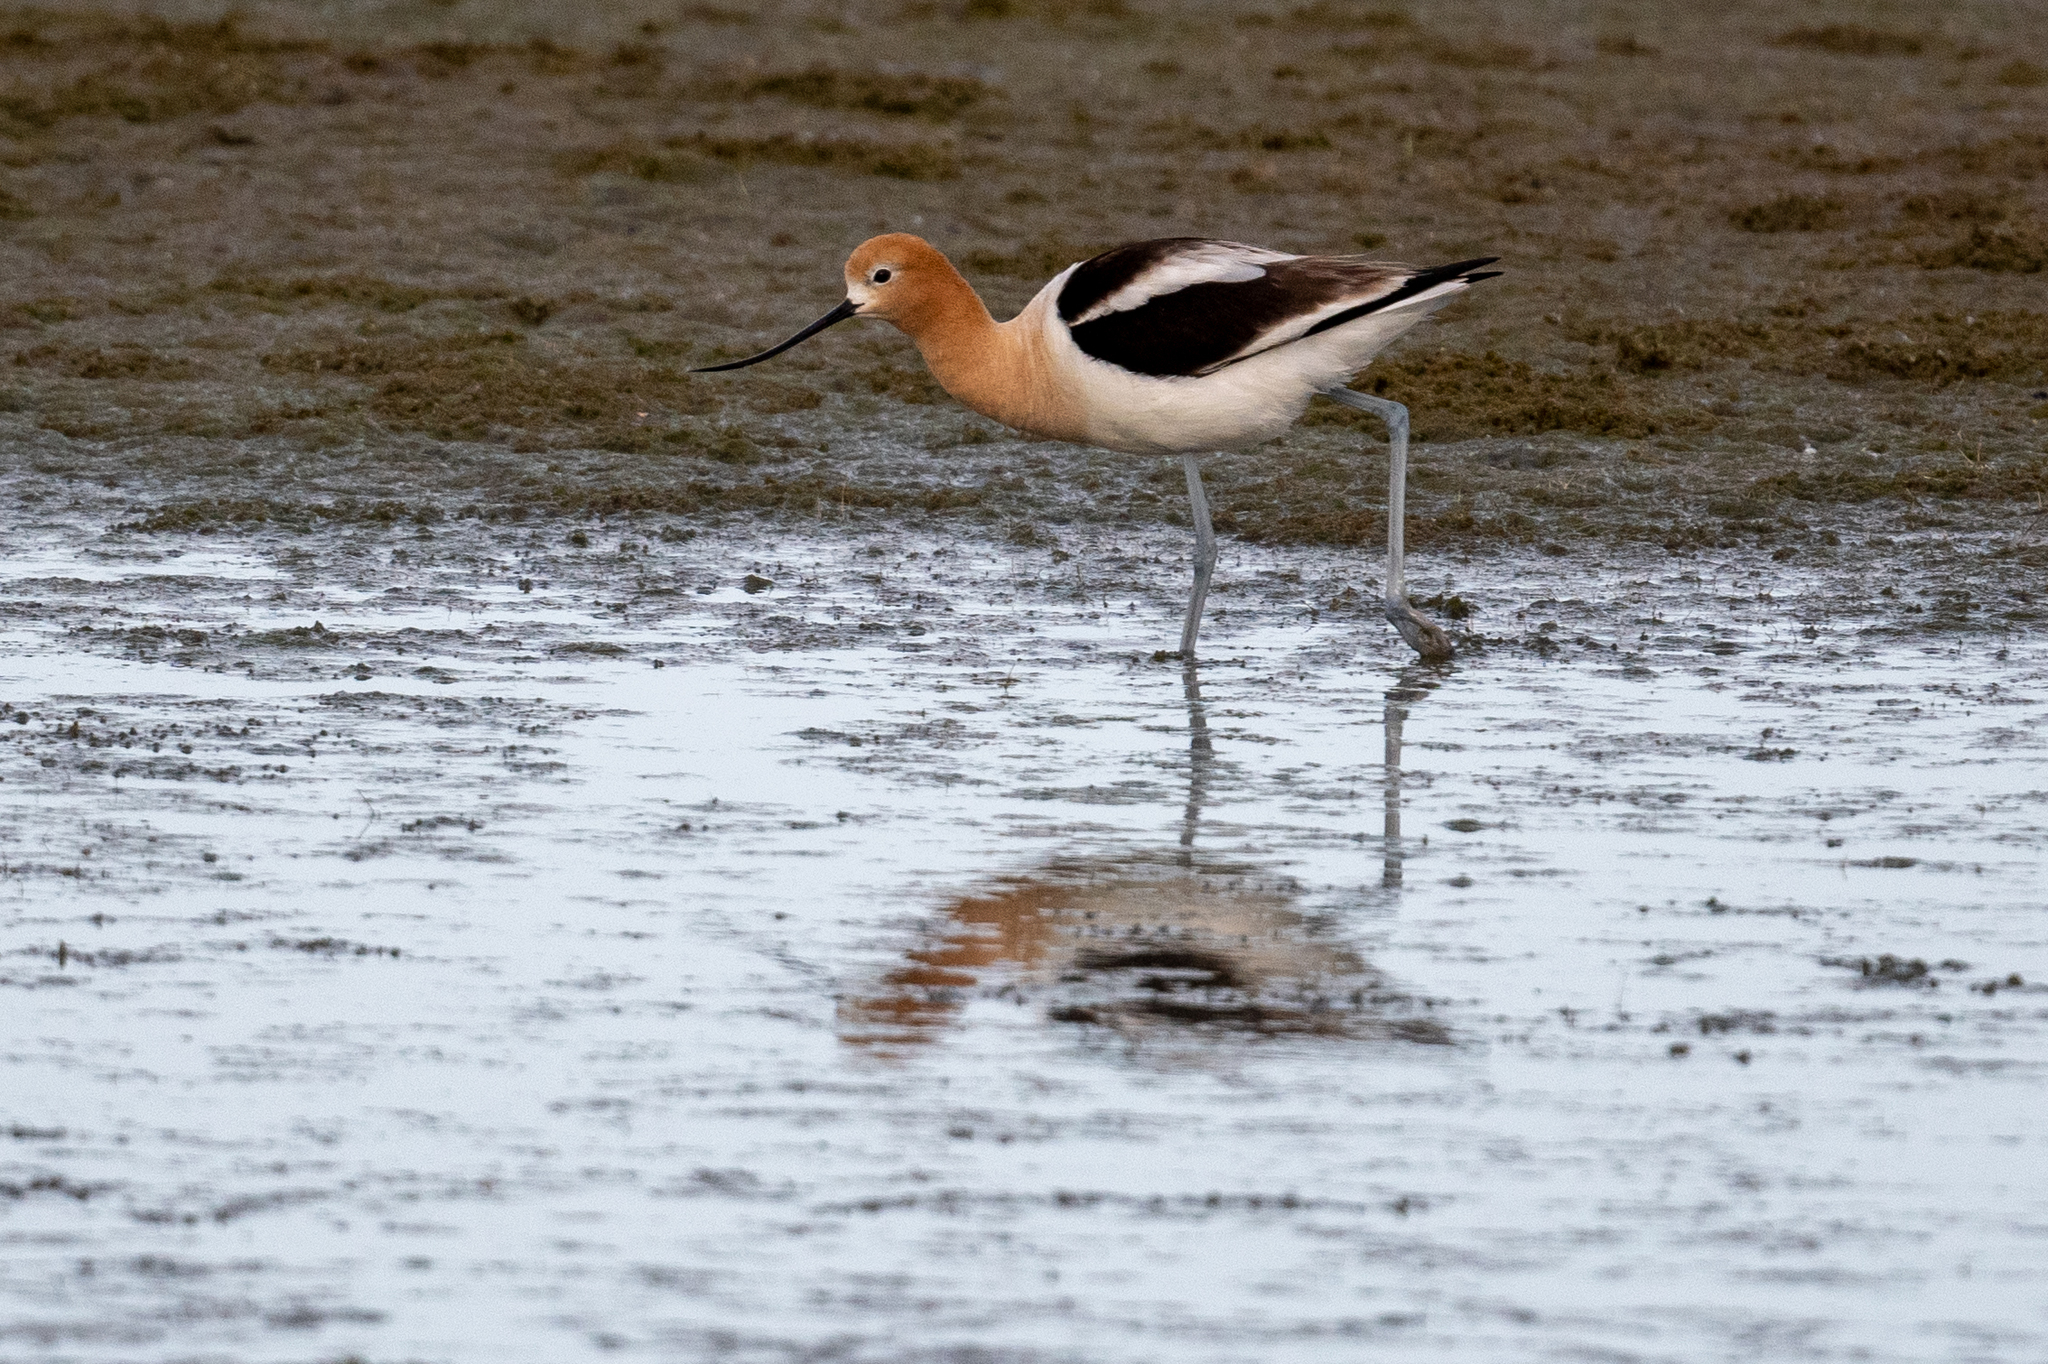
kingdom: Animalia
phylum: Chordata
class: Aves
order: Charadriiformes
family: Recurvirostridae
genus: Recurvirostra
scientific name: Recurvirostra americana
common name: American avocet
